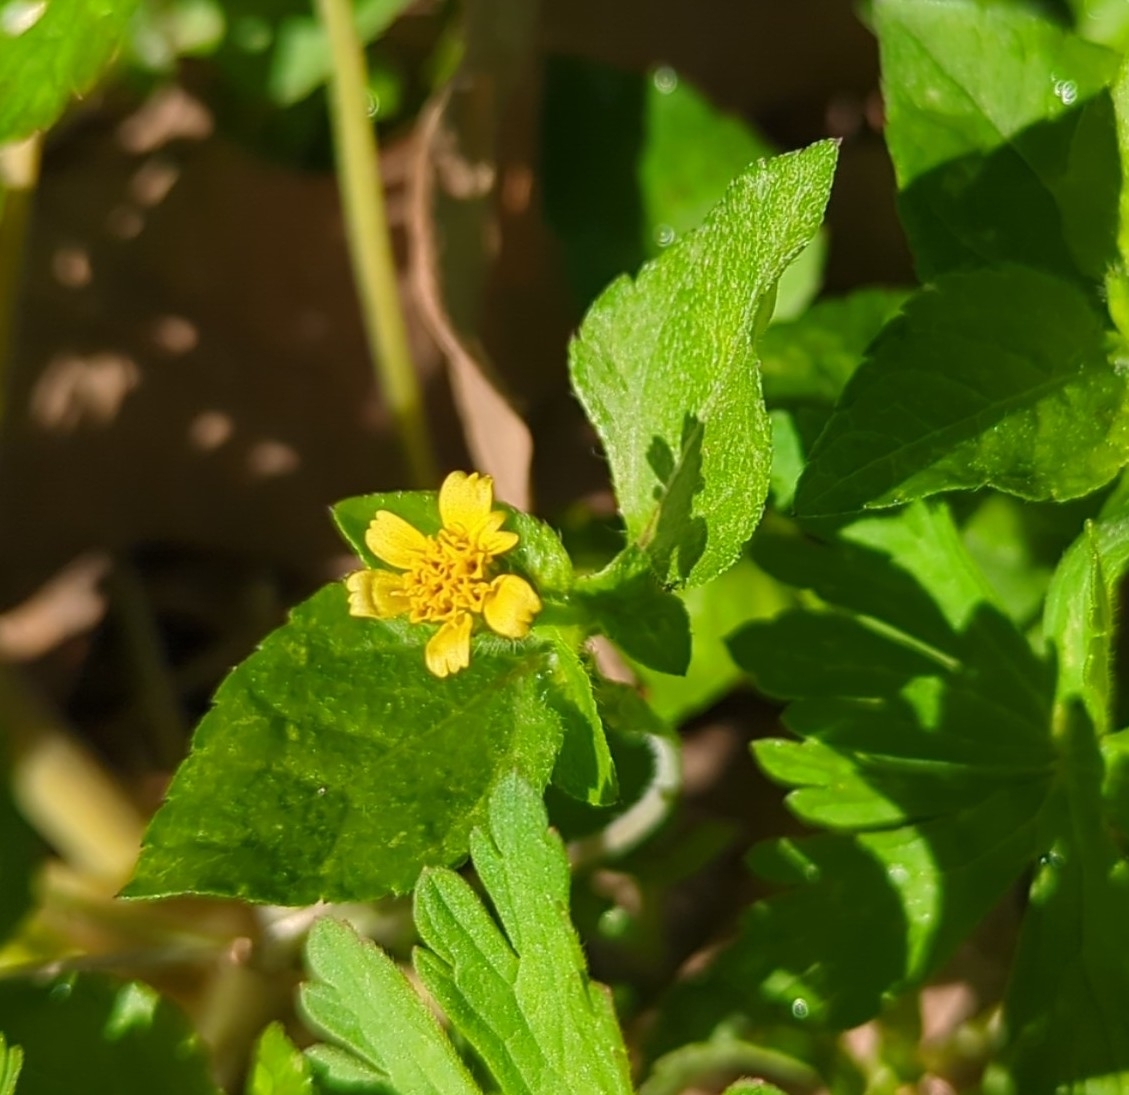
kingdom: Plantae
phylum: Tracheophyta
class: Magnoliopsida
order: Asterales
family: Asteraceae
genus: Calyptocarpus
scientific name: Calyptocarpus vialis
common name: Straggler daisy
